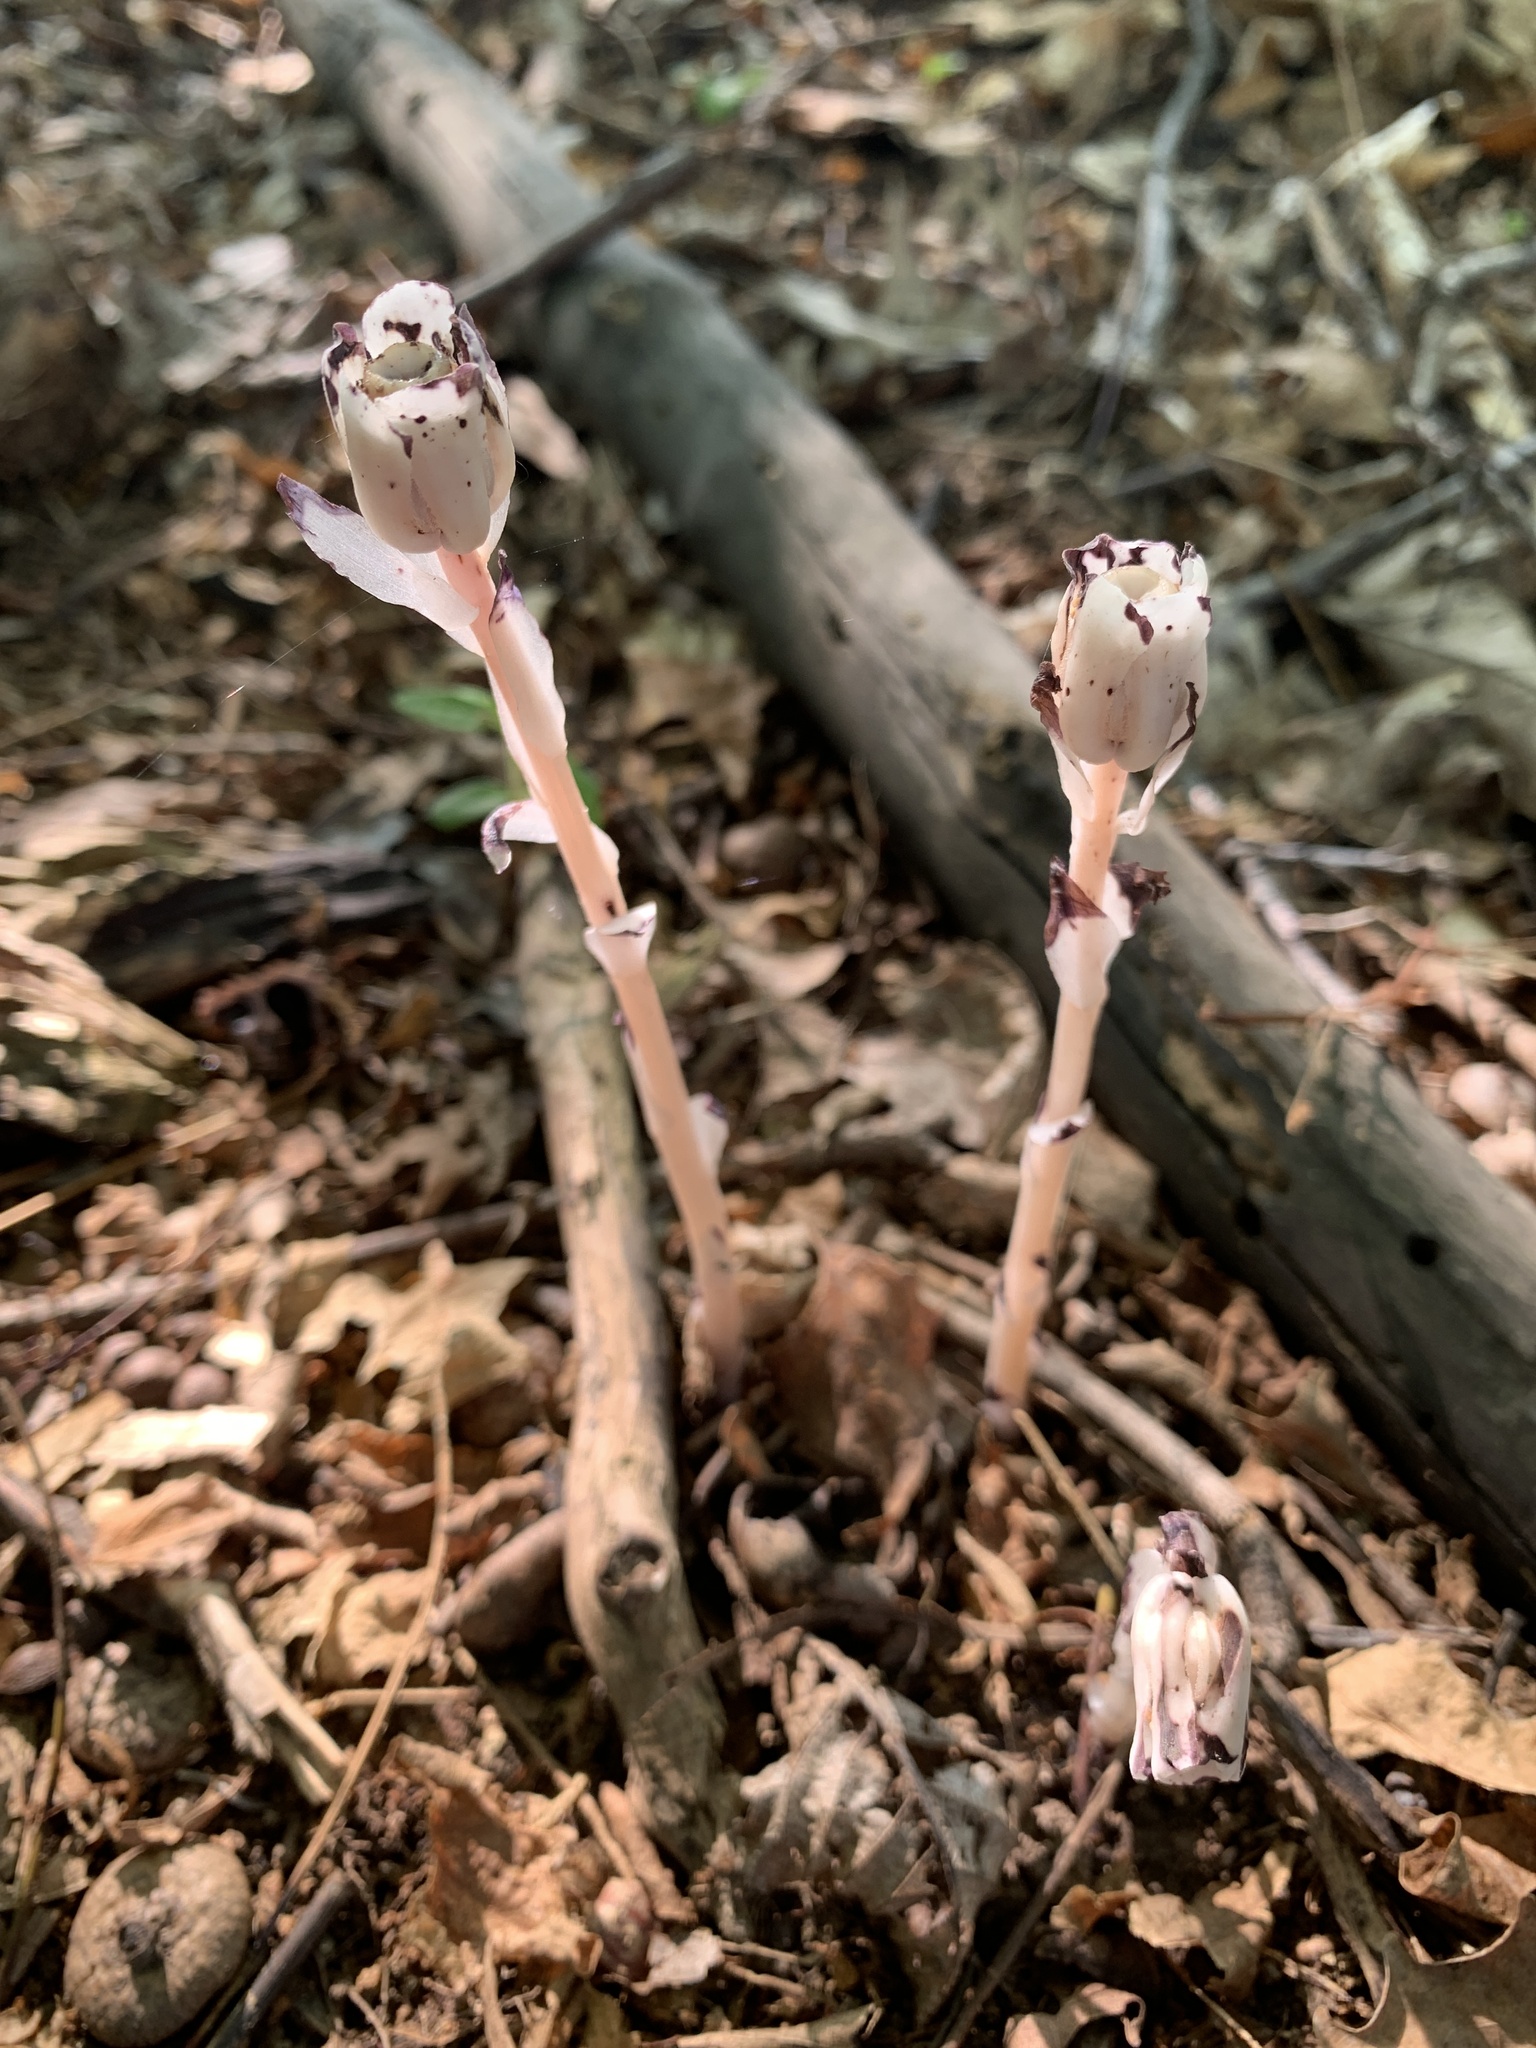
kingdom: Plantae
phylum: Tracheophyta
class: Magnoliopsida
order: Ericales
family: Ericaceae
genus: Monotropa
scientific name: Monotropa uniflora
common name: Convulsion root
